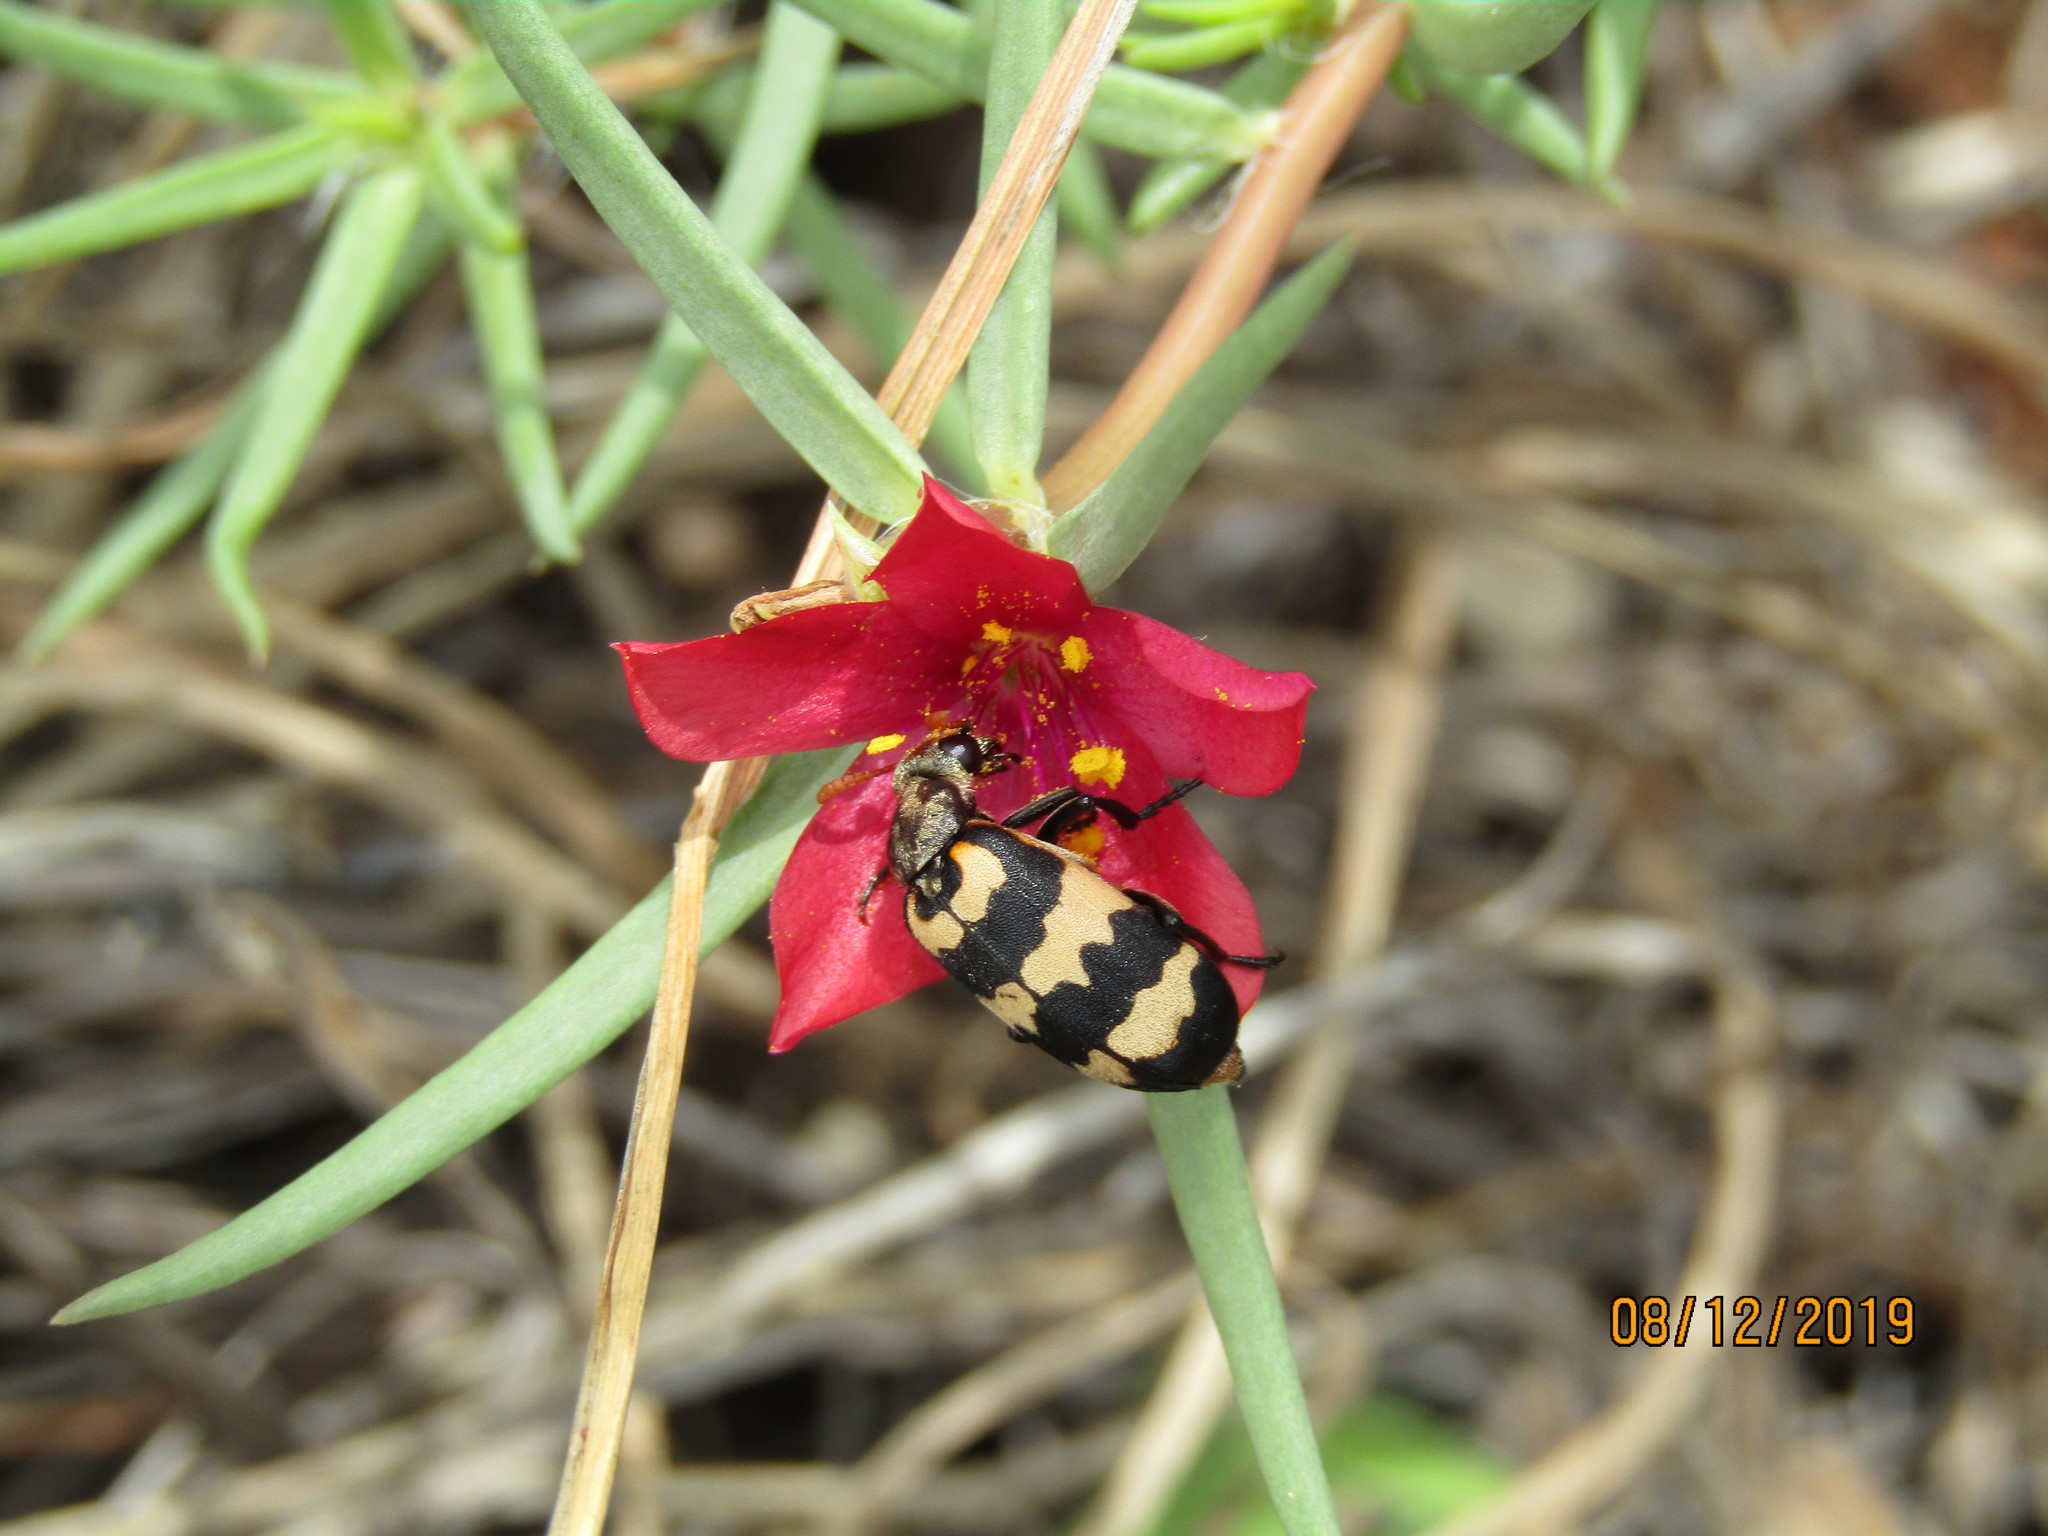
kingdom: Animalia
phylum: Arthropoda
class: Insecta
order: Coleoptera
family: Meloidae
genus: Meloe
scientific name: Meloe lunata
